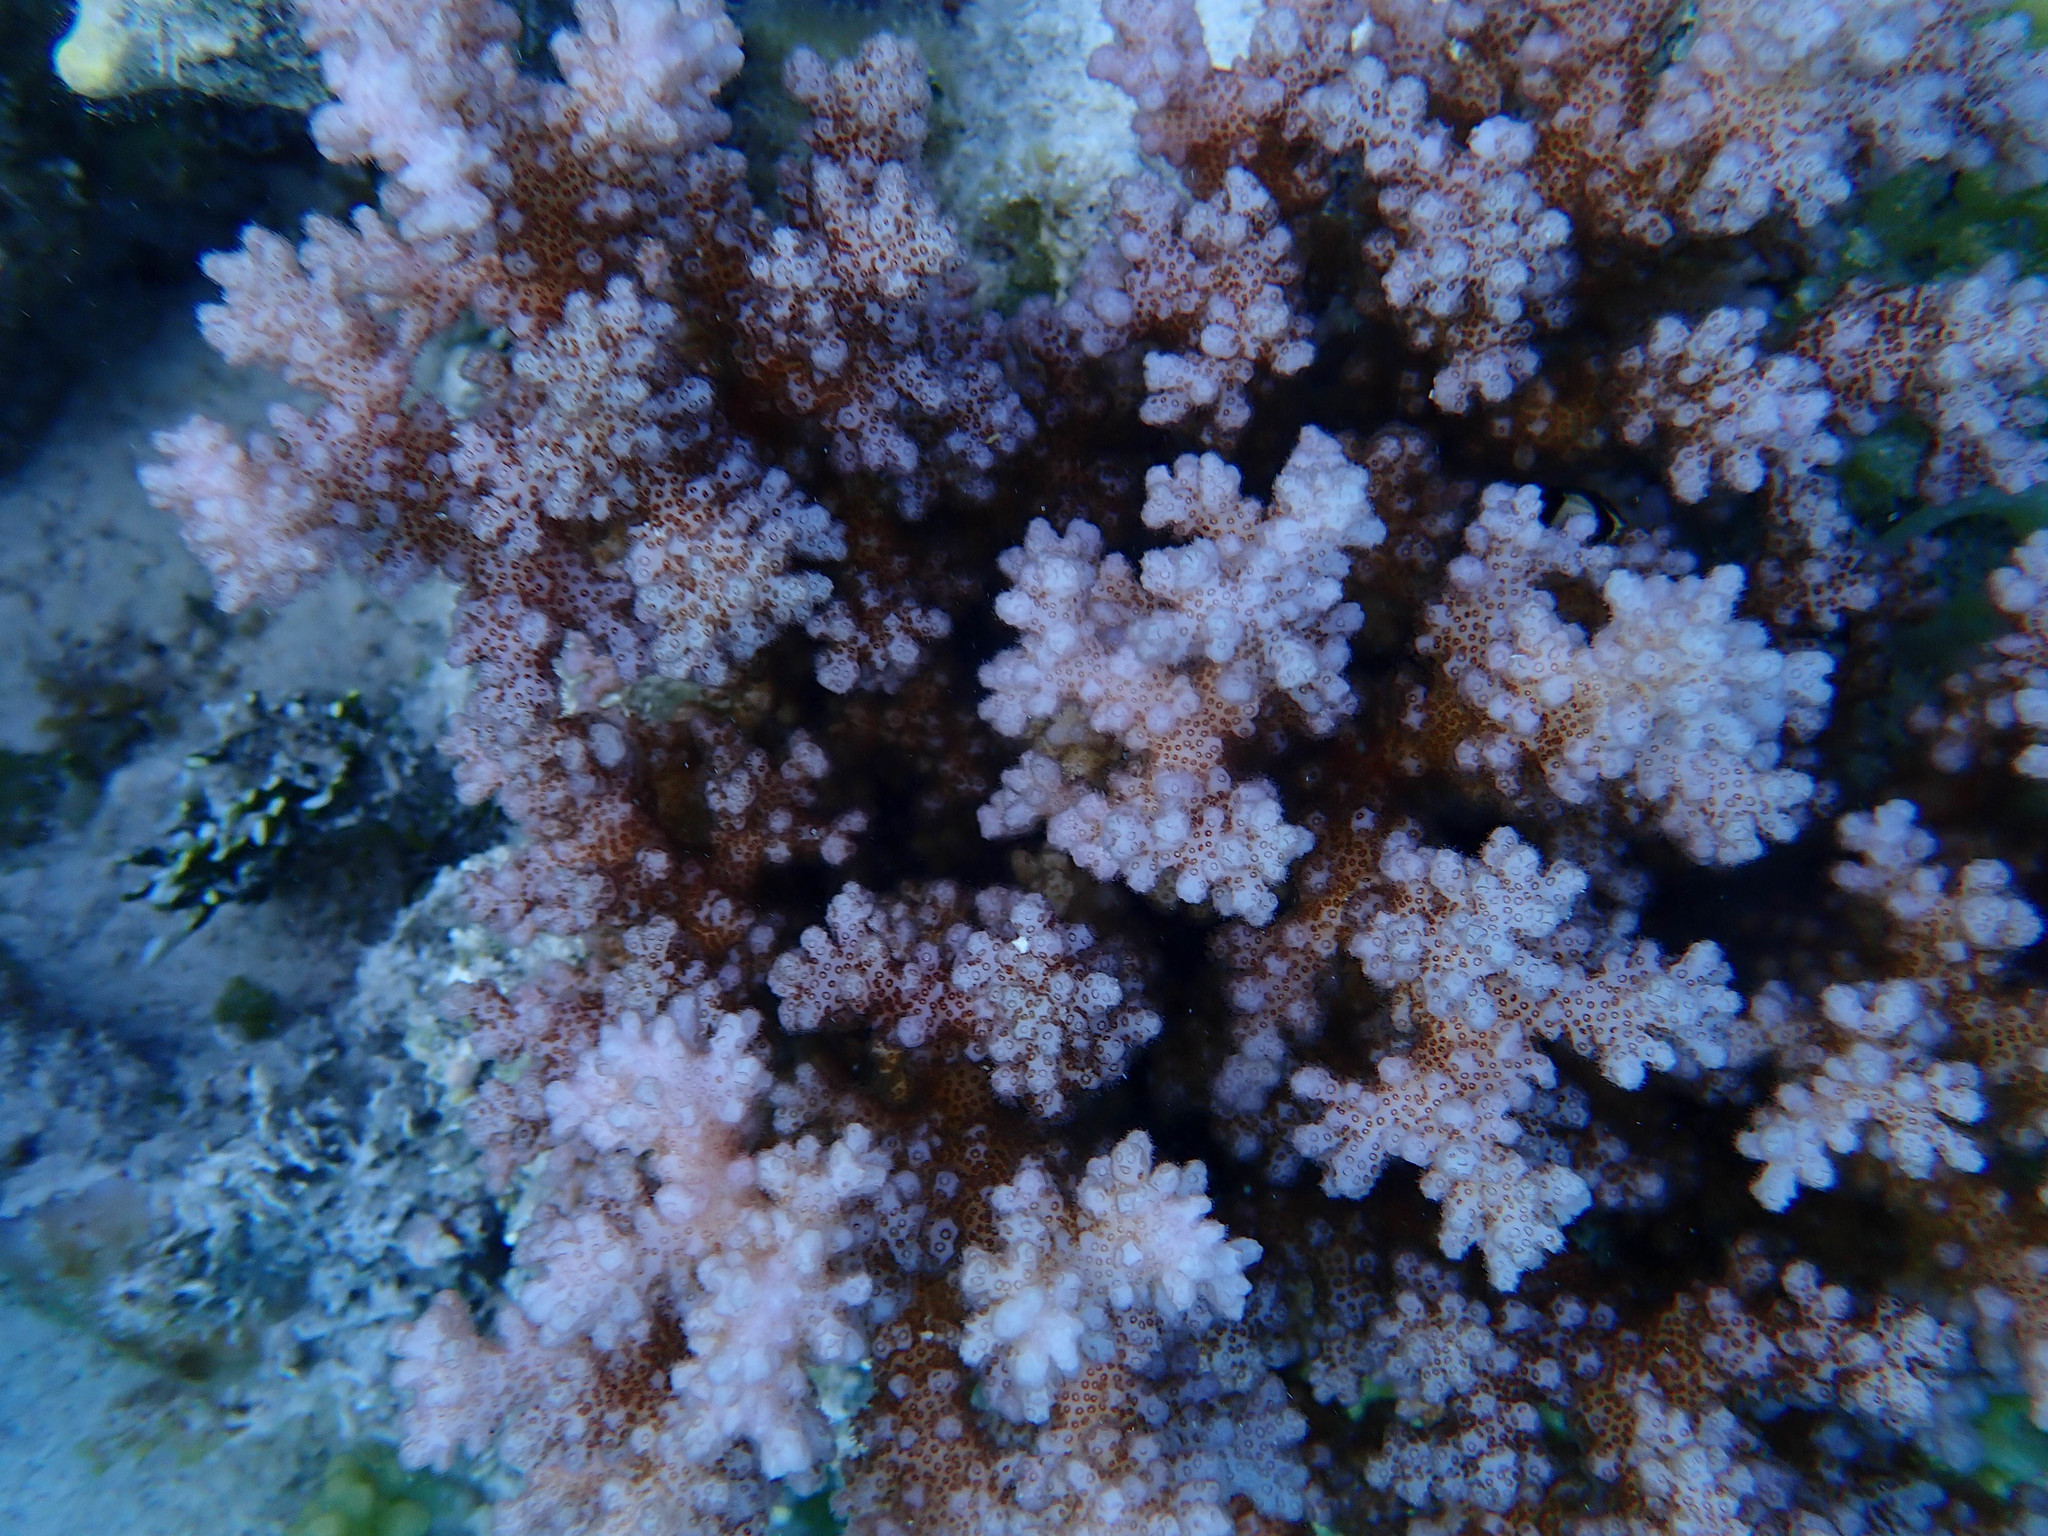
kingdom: Animalia
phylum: Cnidaria
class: Anthozoa
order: Scleractinia
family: Pocilloporidae
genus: Pocillopora
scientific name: Pocillopora damicornis
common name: Cauliflower coral
